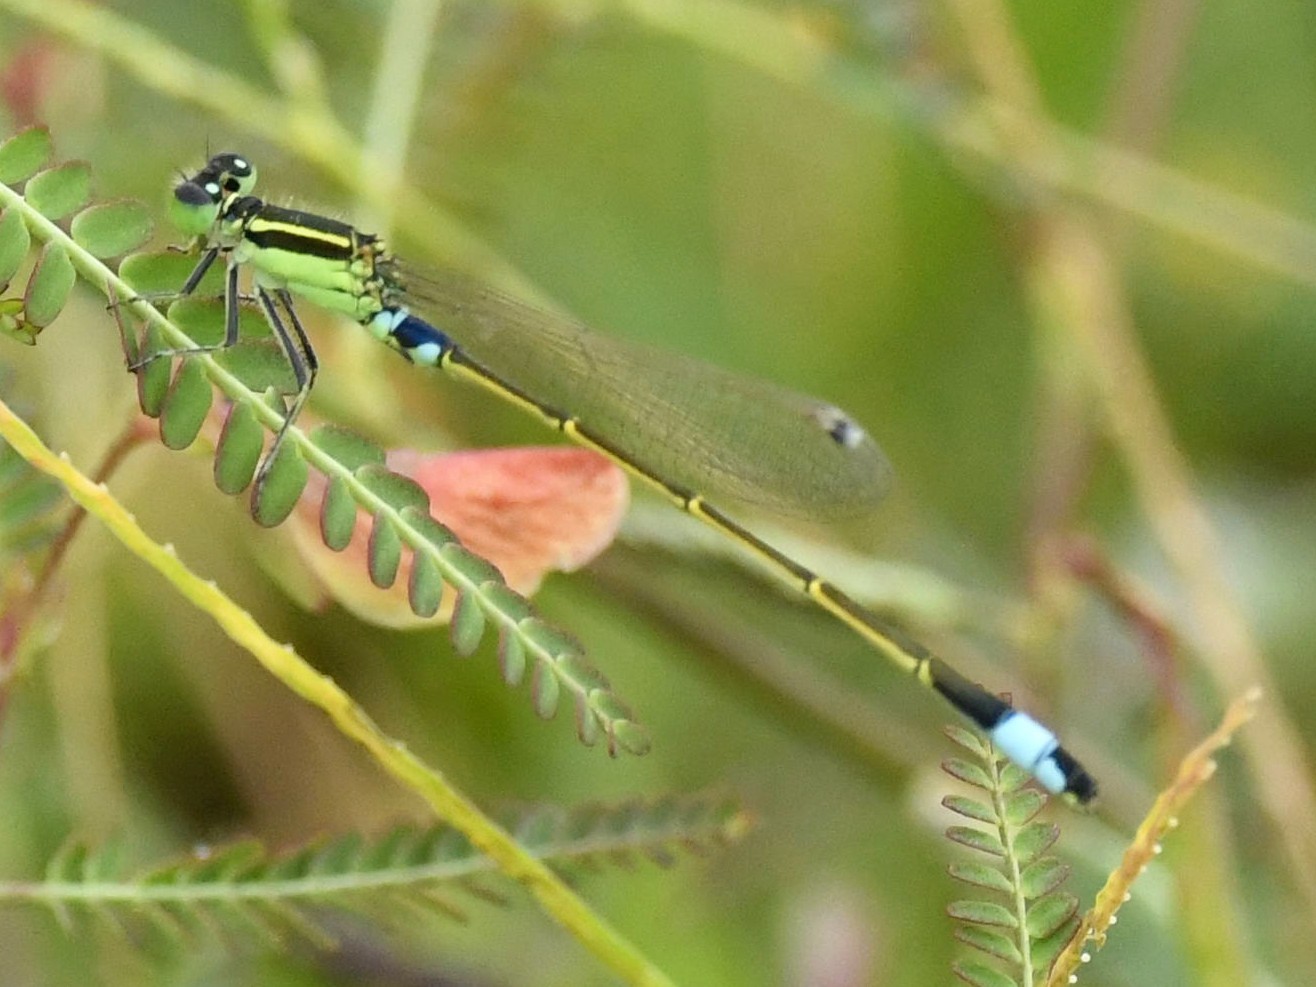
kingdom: Animalia
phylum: Arthropoda
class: Insecta
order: Odonata
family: Coenagrionidae
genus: Ischnura
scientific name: Ischnura senegalensis
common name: Tropical bluetail
